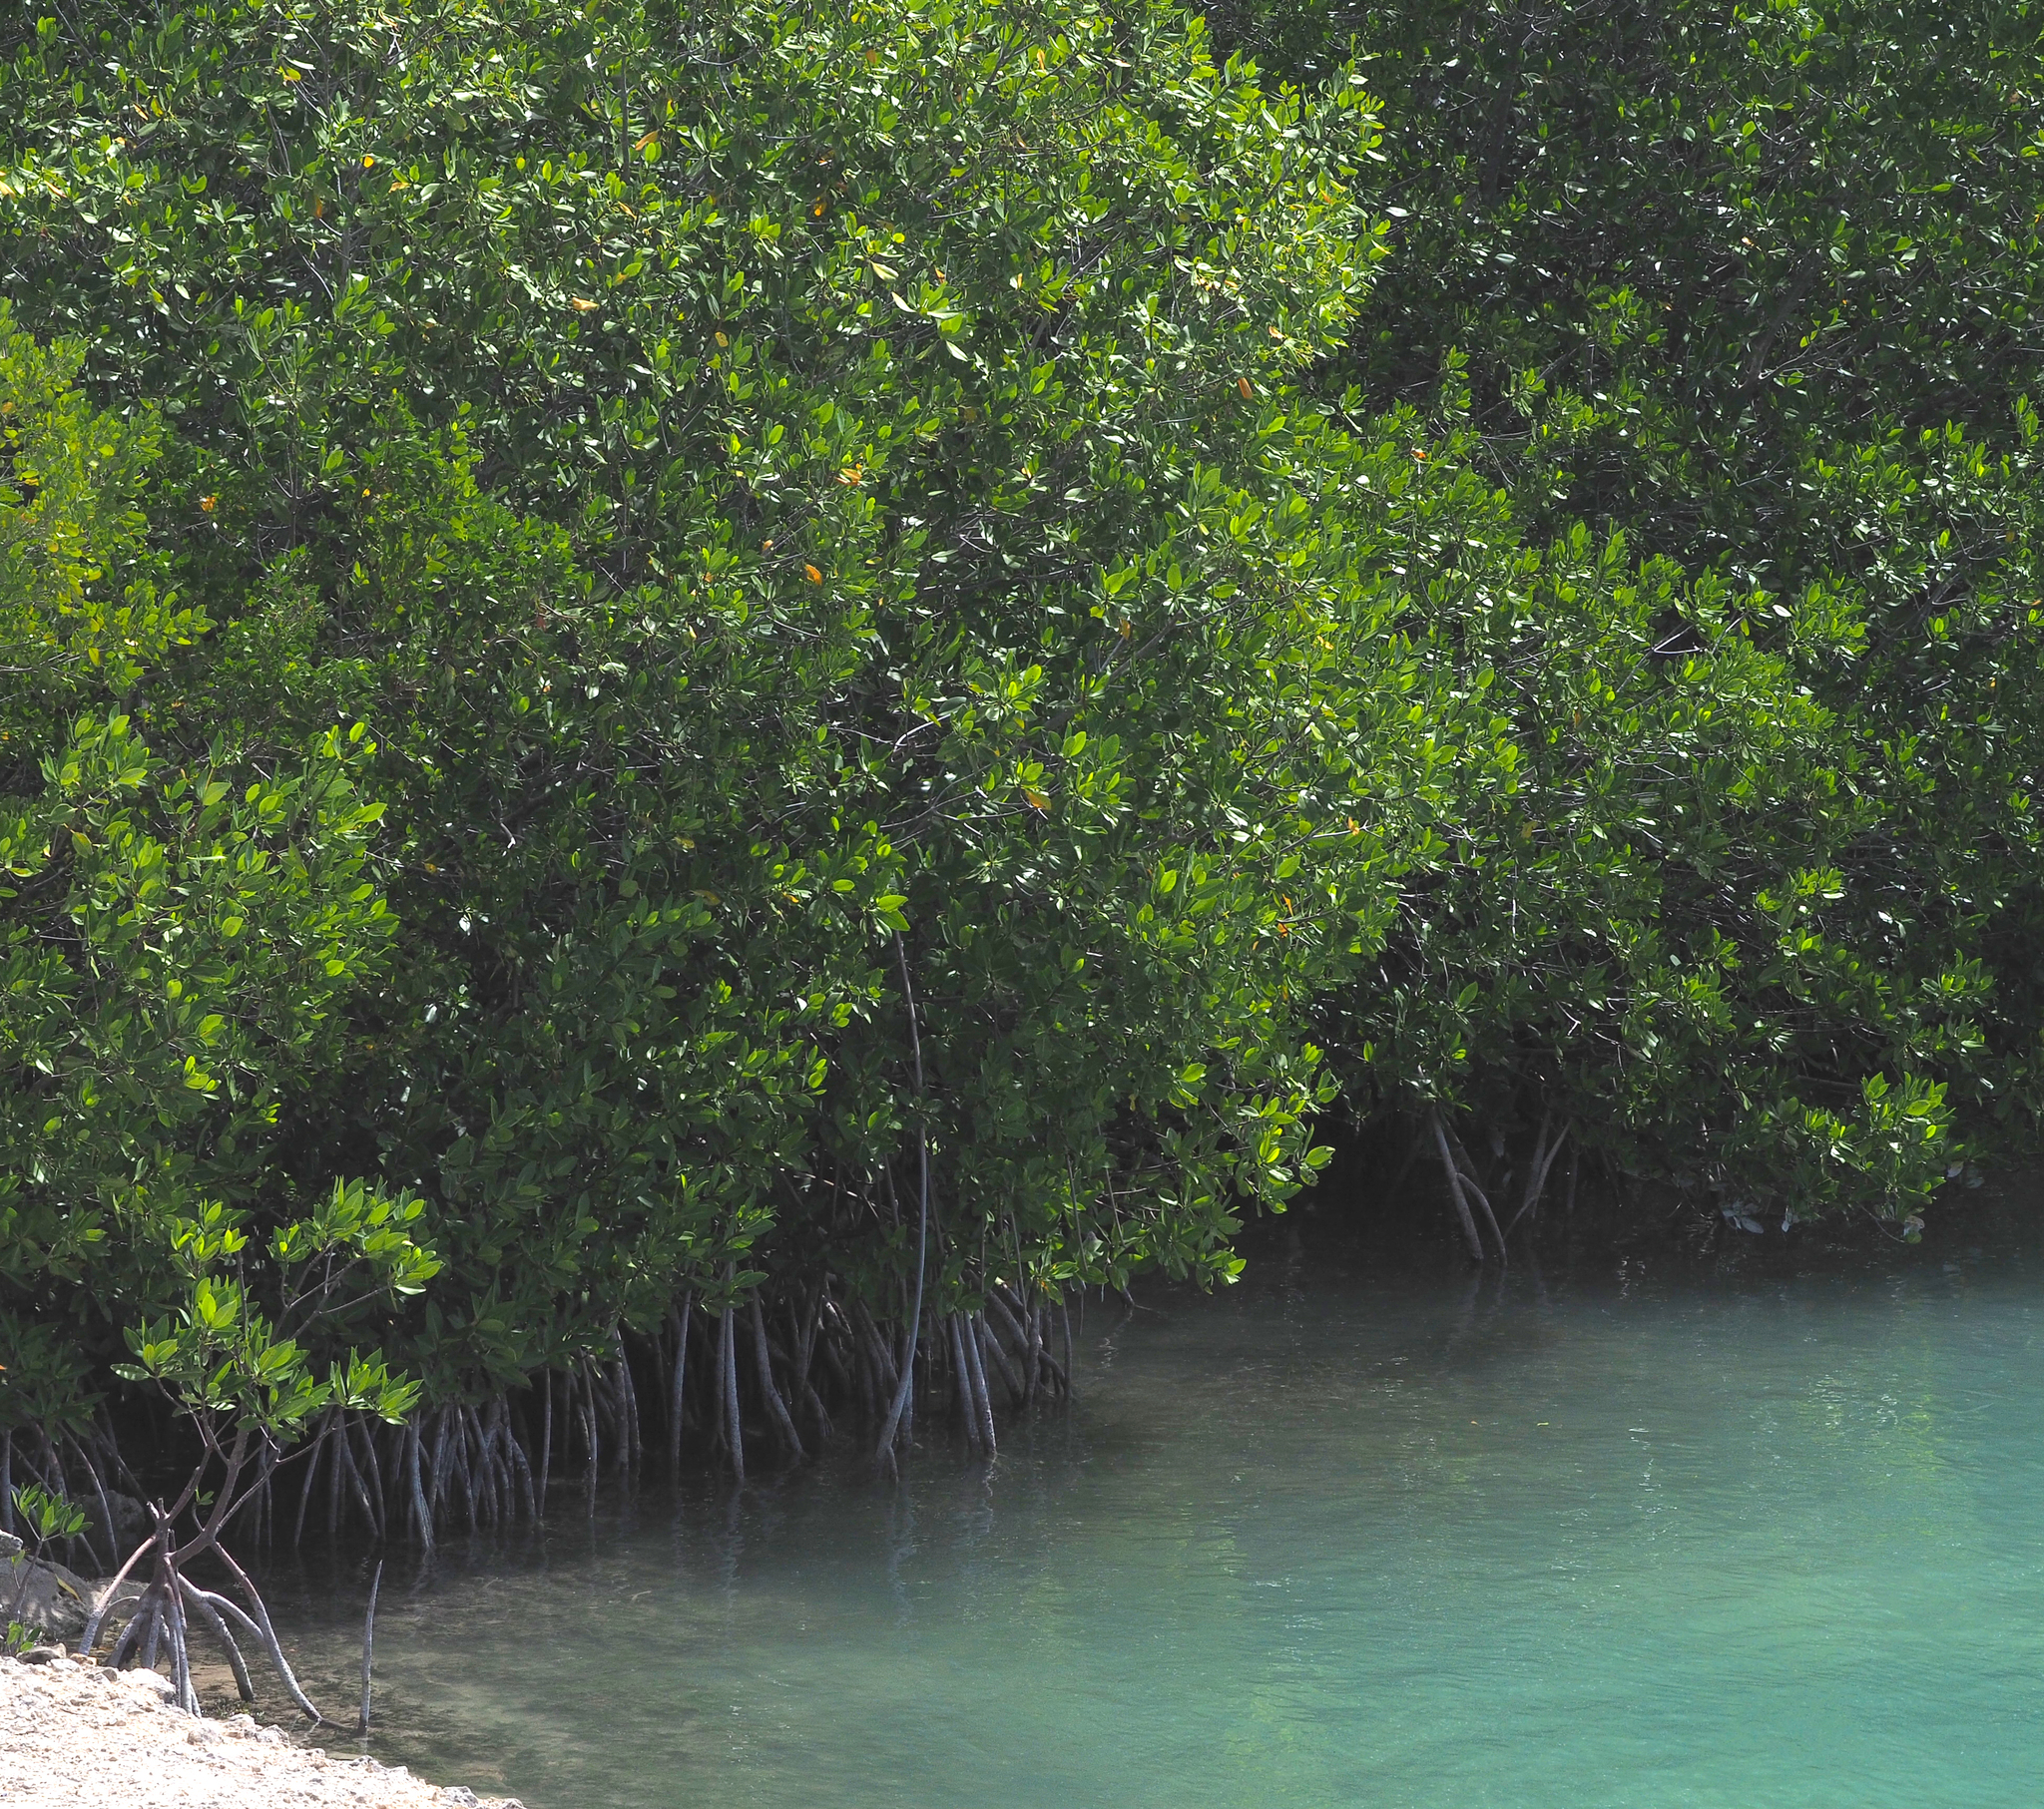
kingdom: Plantae
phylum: Tracheophyta
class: Magnoliopsida
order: Malpighiales
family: Rhizophoraceae
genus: Rhizophora
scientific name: Rhizophora mangle
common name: Red mangrove
